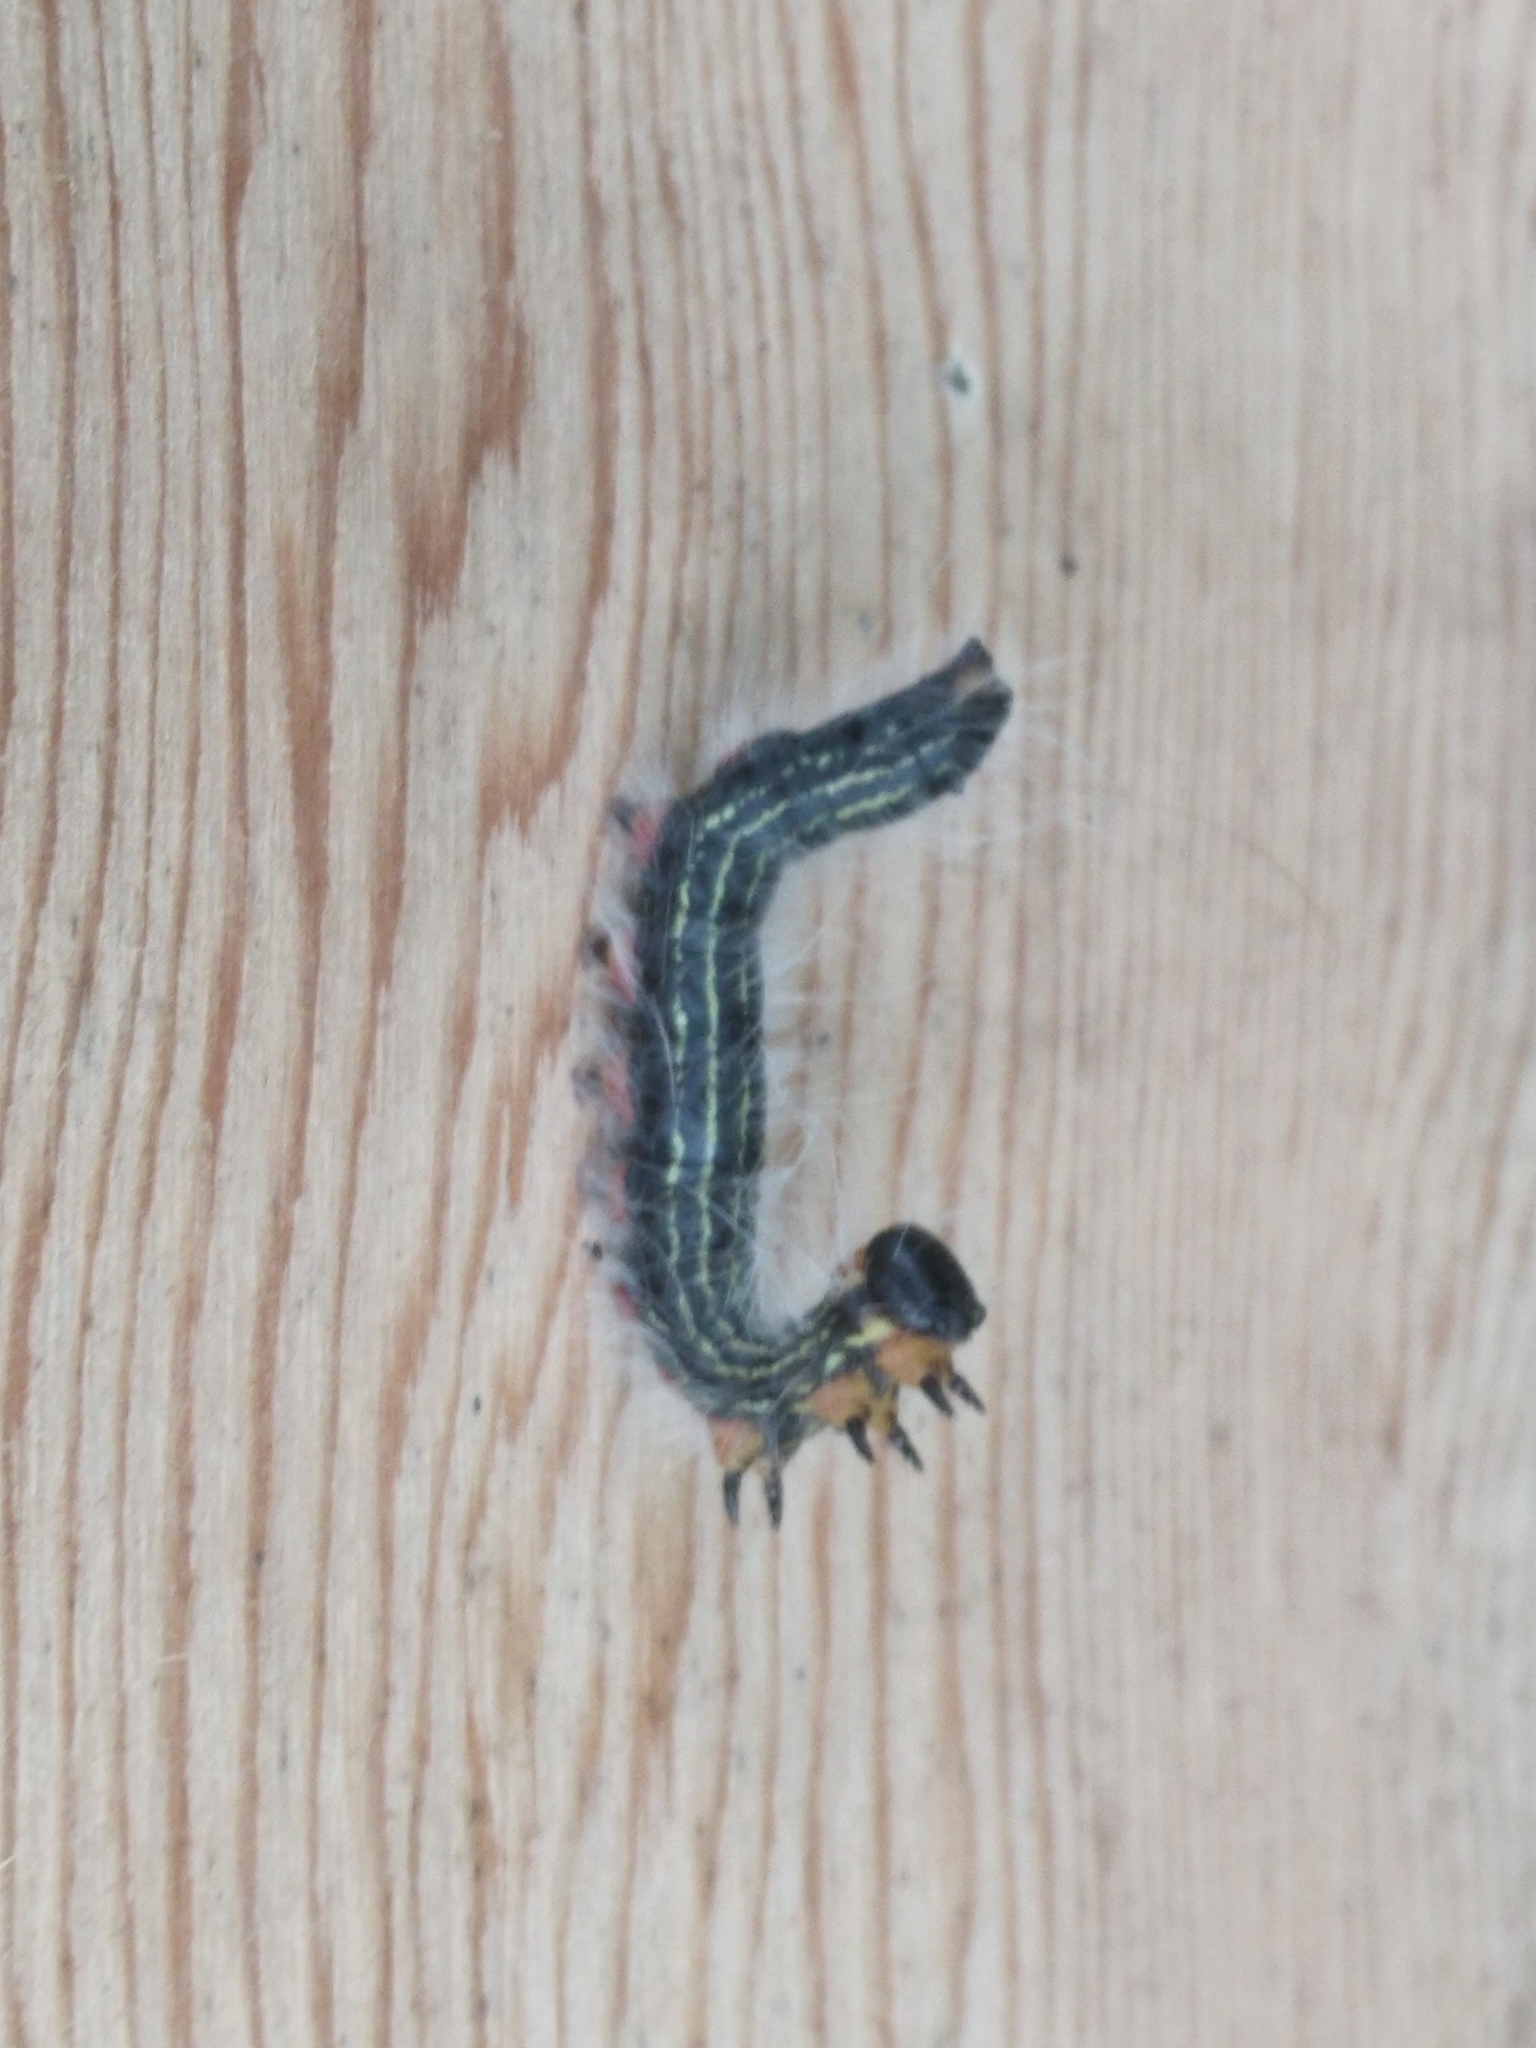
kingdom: Animalia
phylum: Arthropoda
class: Insecta
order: Lepidoptera
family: Notodontidae
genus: Datana
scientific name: Datana ministra
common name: Yellow-necked caterpillar moth
